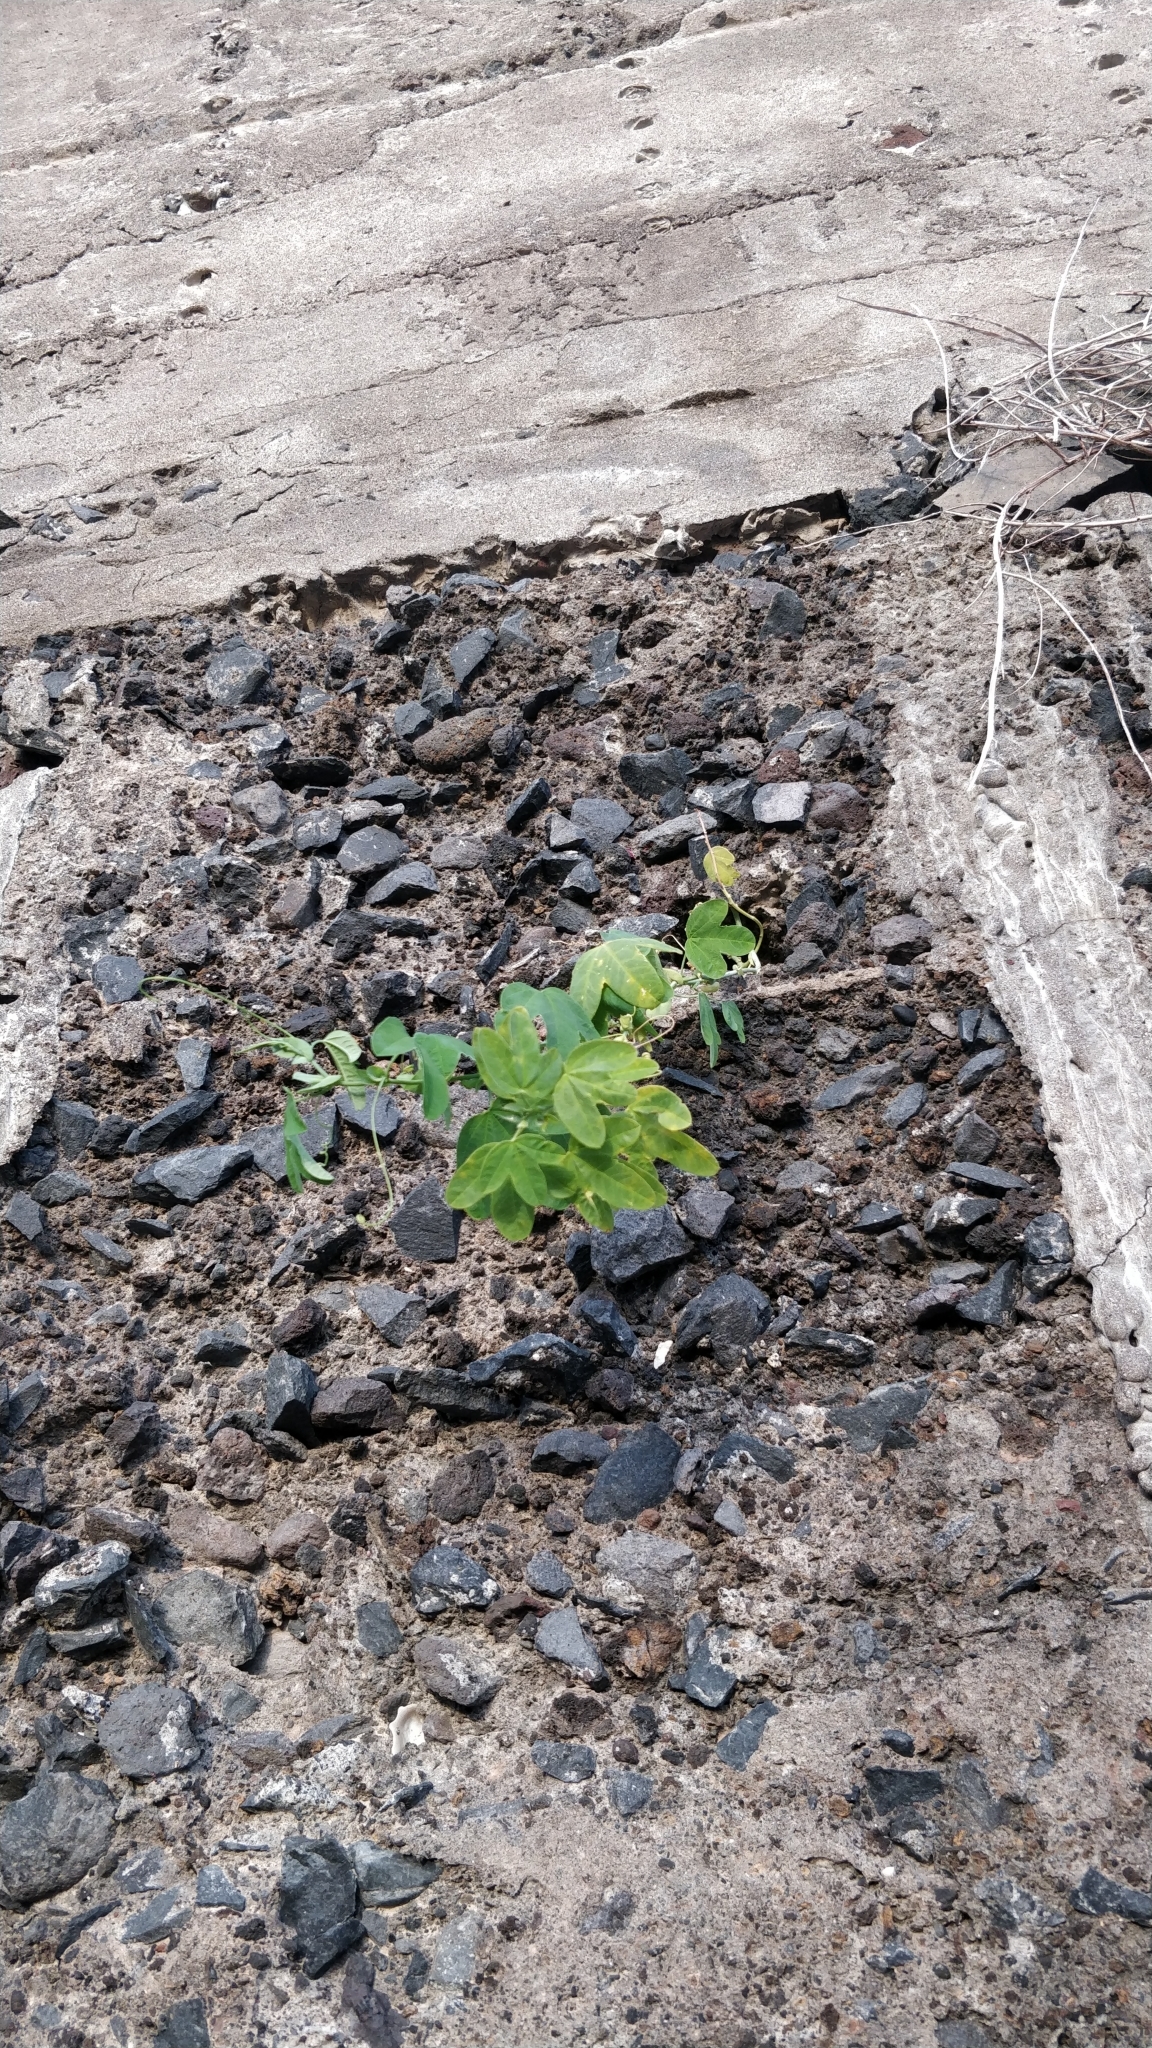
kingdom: Plantae
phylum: Tracheophyta
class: Magnoliopsida
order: Malpighiales
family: Passifloraceae
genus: Passiflora
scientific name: Passiflora subpeltata
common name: White passionflower
